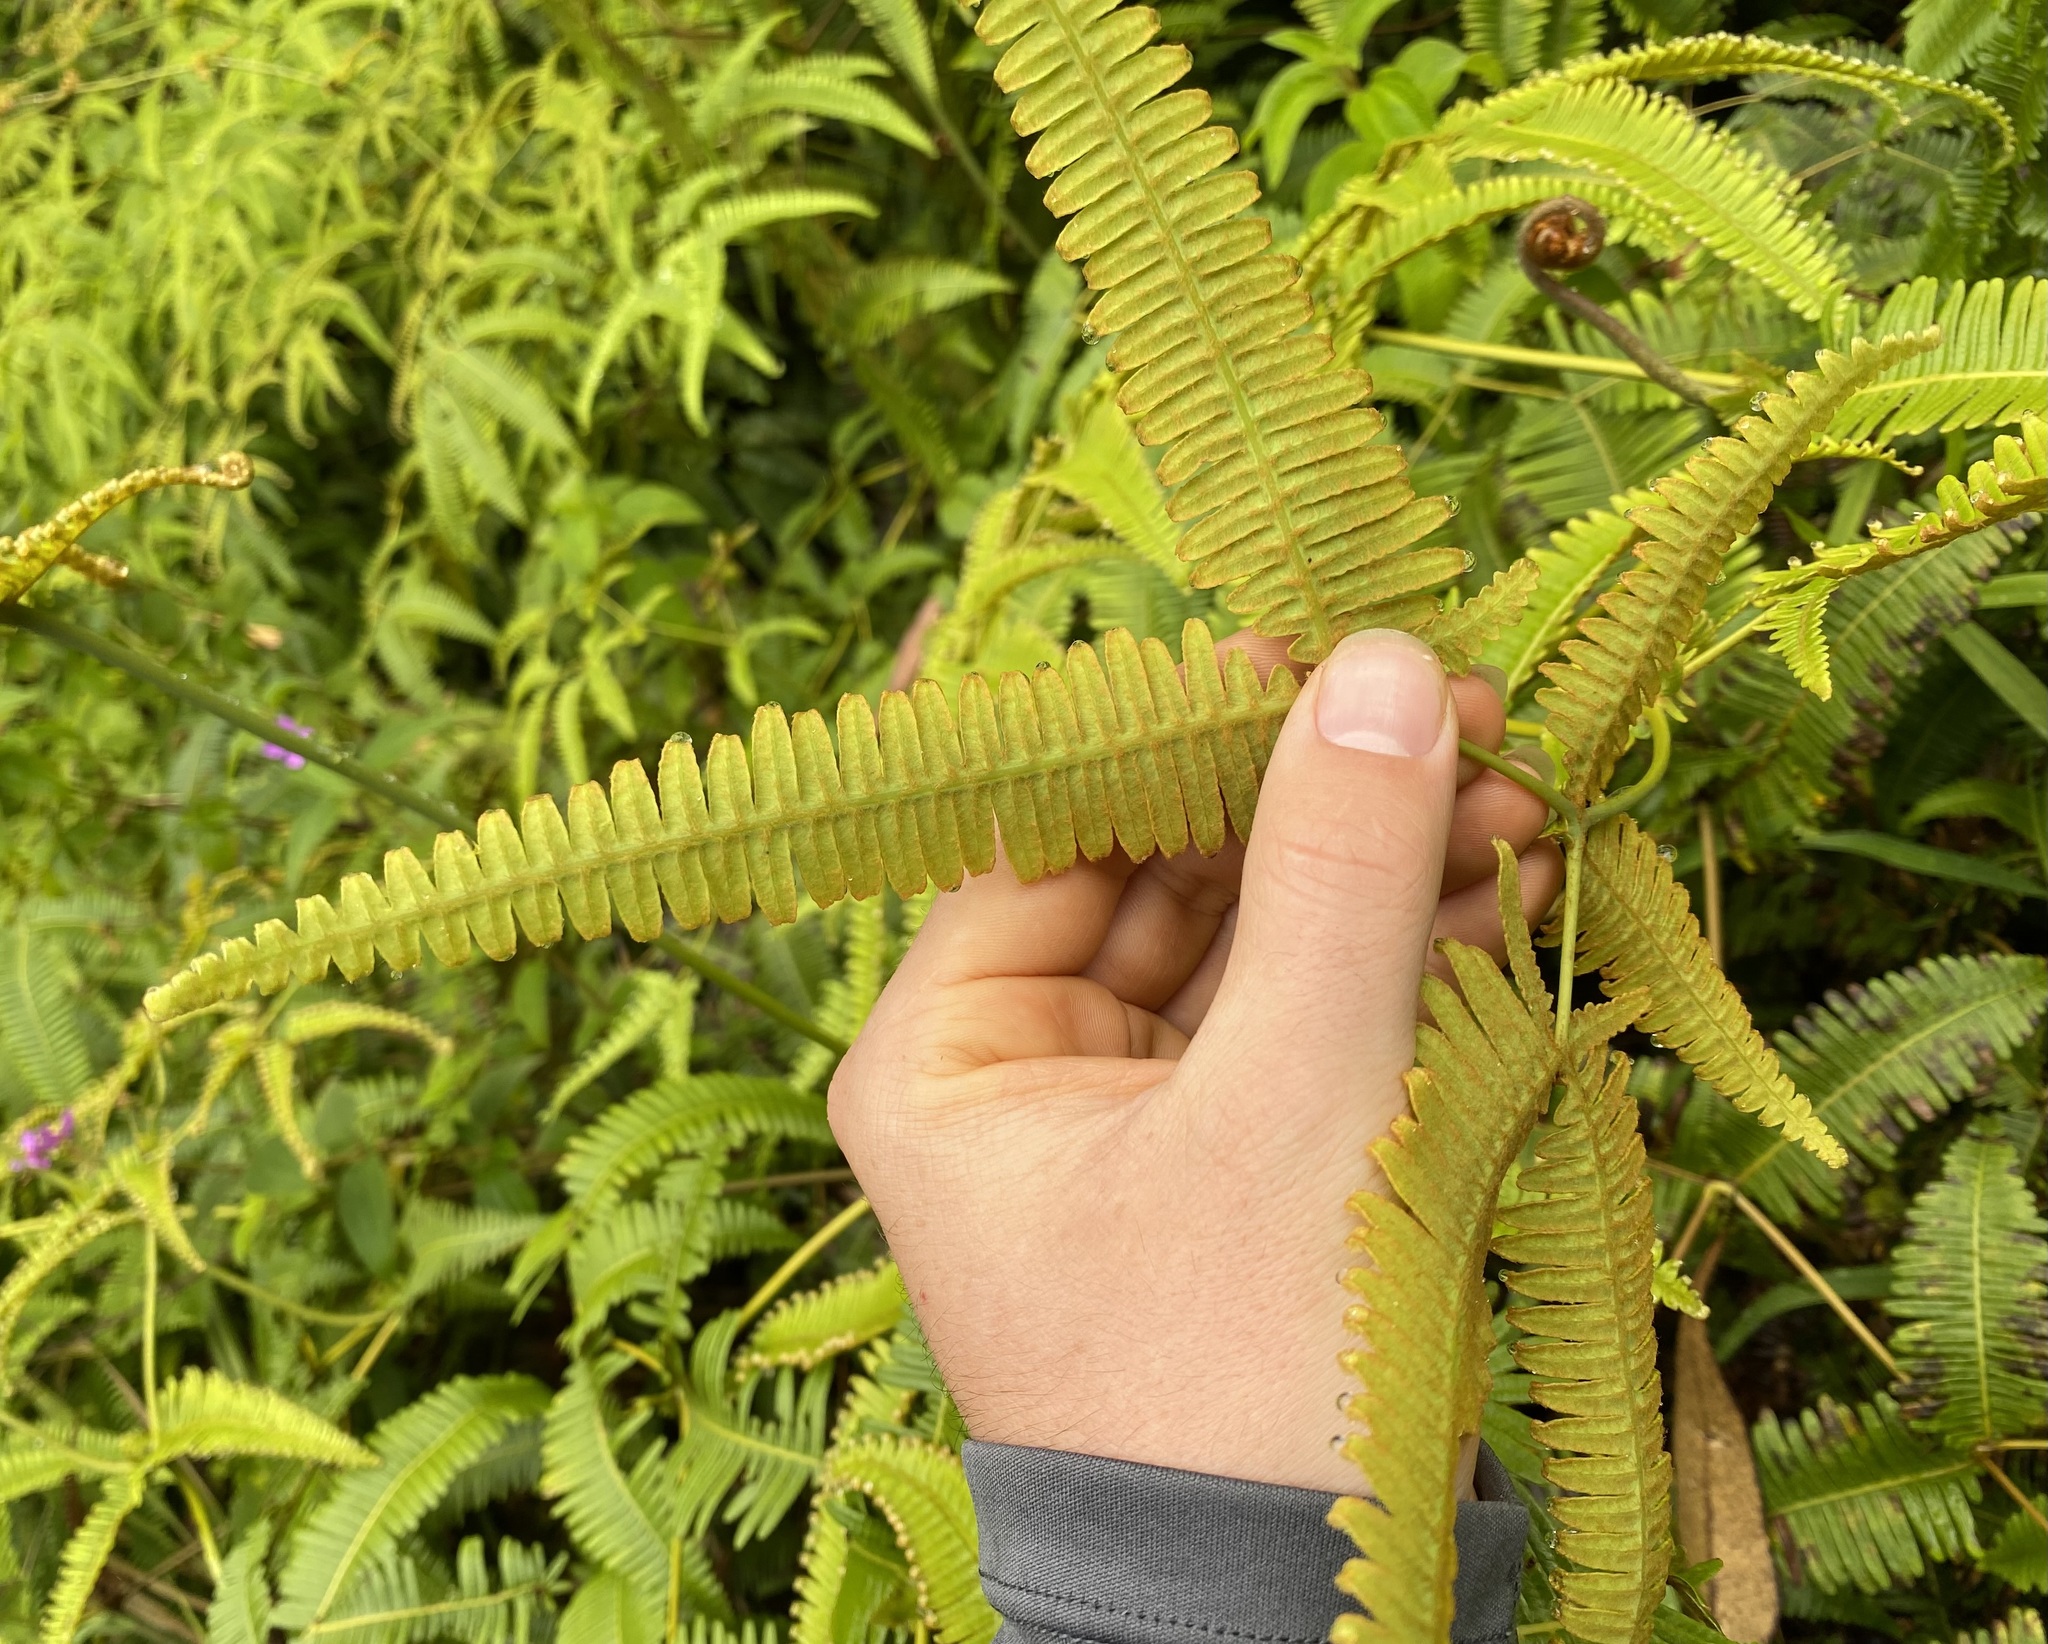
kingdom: Plantae
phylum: Tracheophyta
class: Polypodiopsida
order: Gleicheniales
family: Gleicheniaceae
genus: Dicranopteris
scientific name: Dicranopteris linearis
